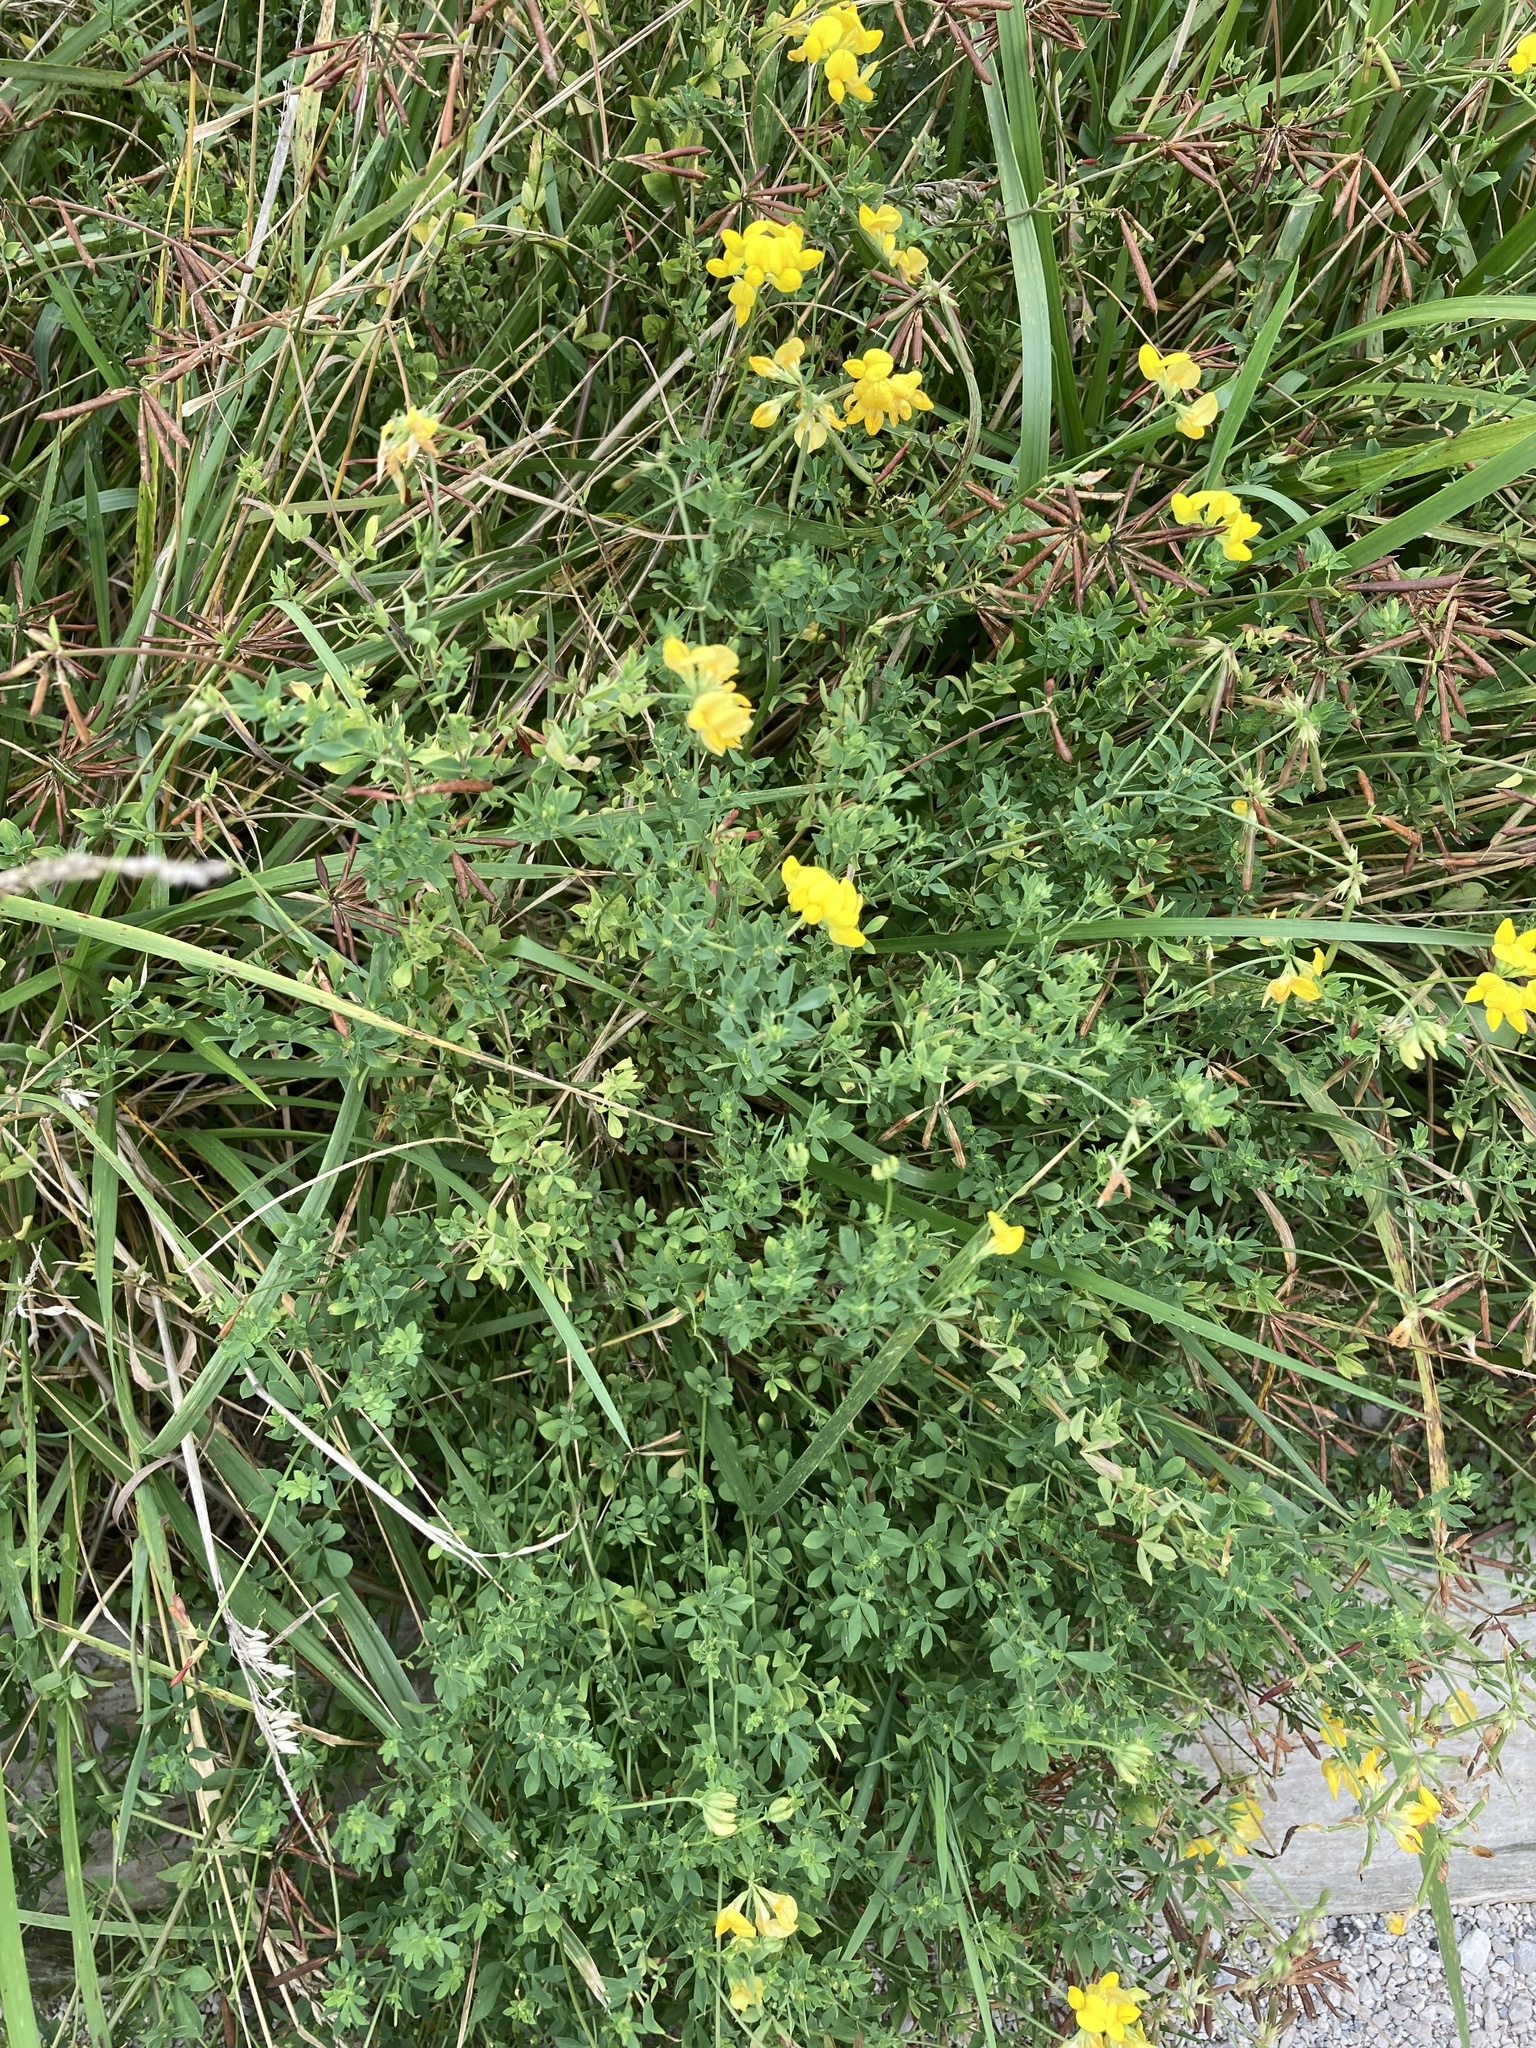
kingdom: Plantae
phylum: Tracheophyta
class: Magnoliopsida
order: Fabales
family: Fabaceae
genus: Lotus
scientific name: Lotus corniculatus
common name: Common bird's-foot-trefoil
